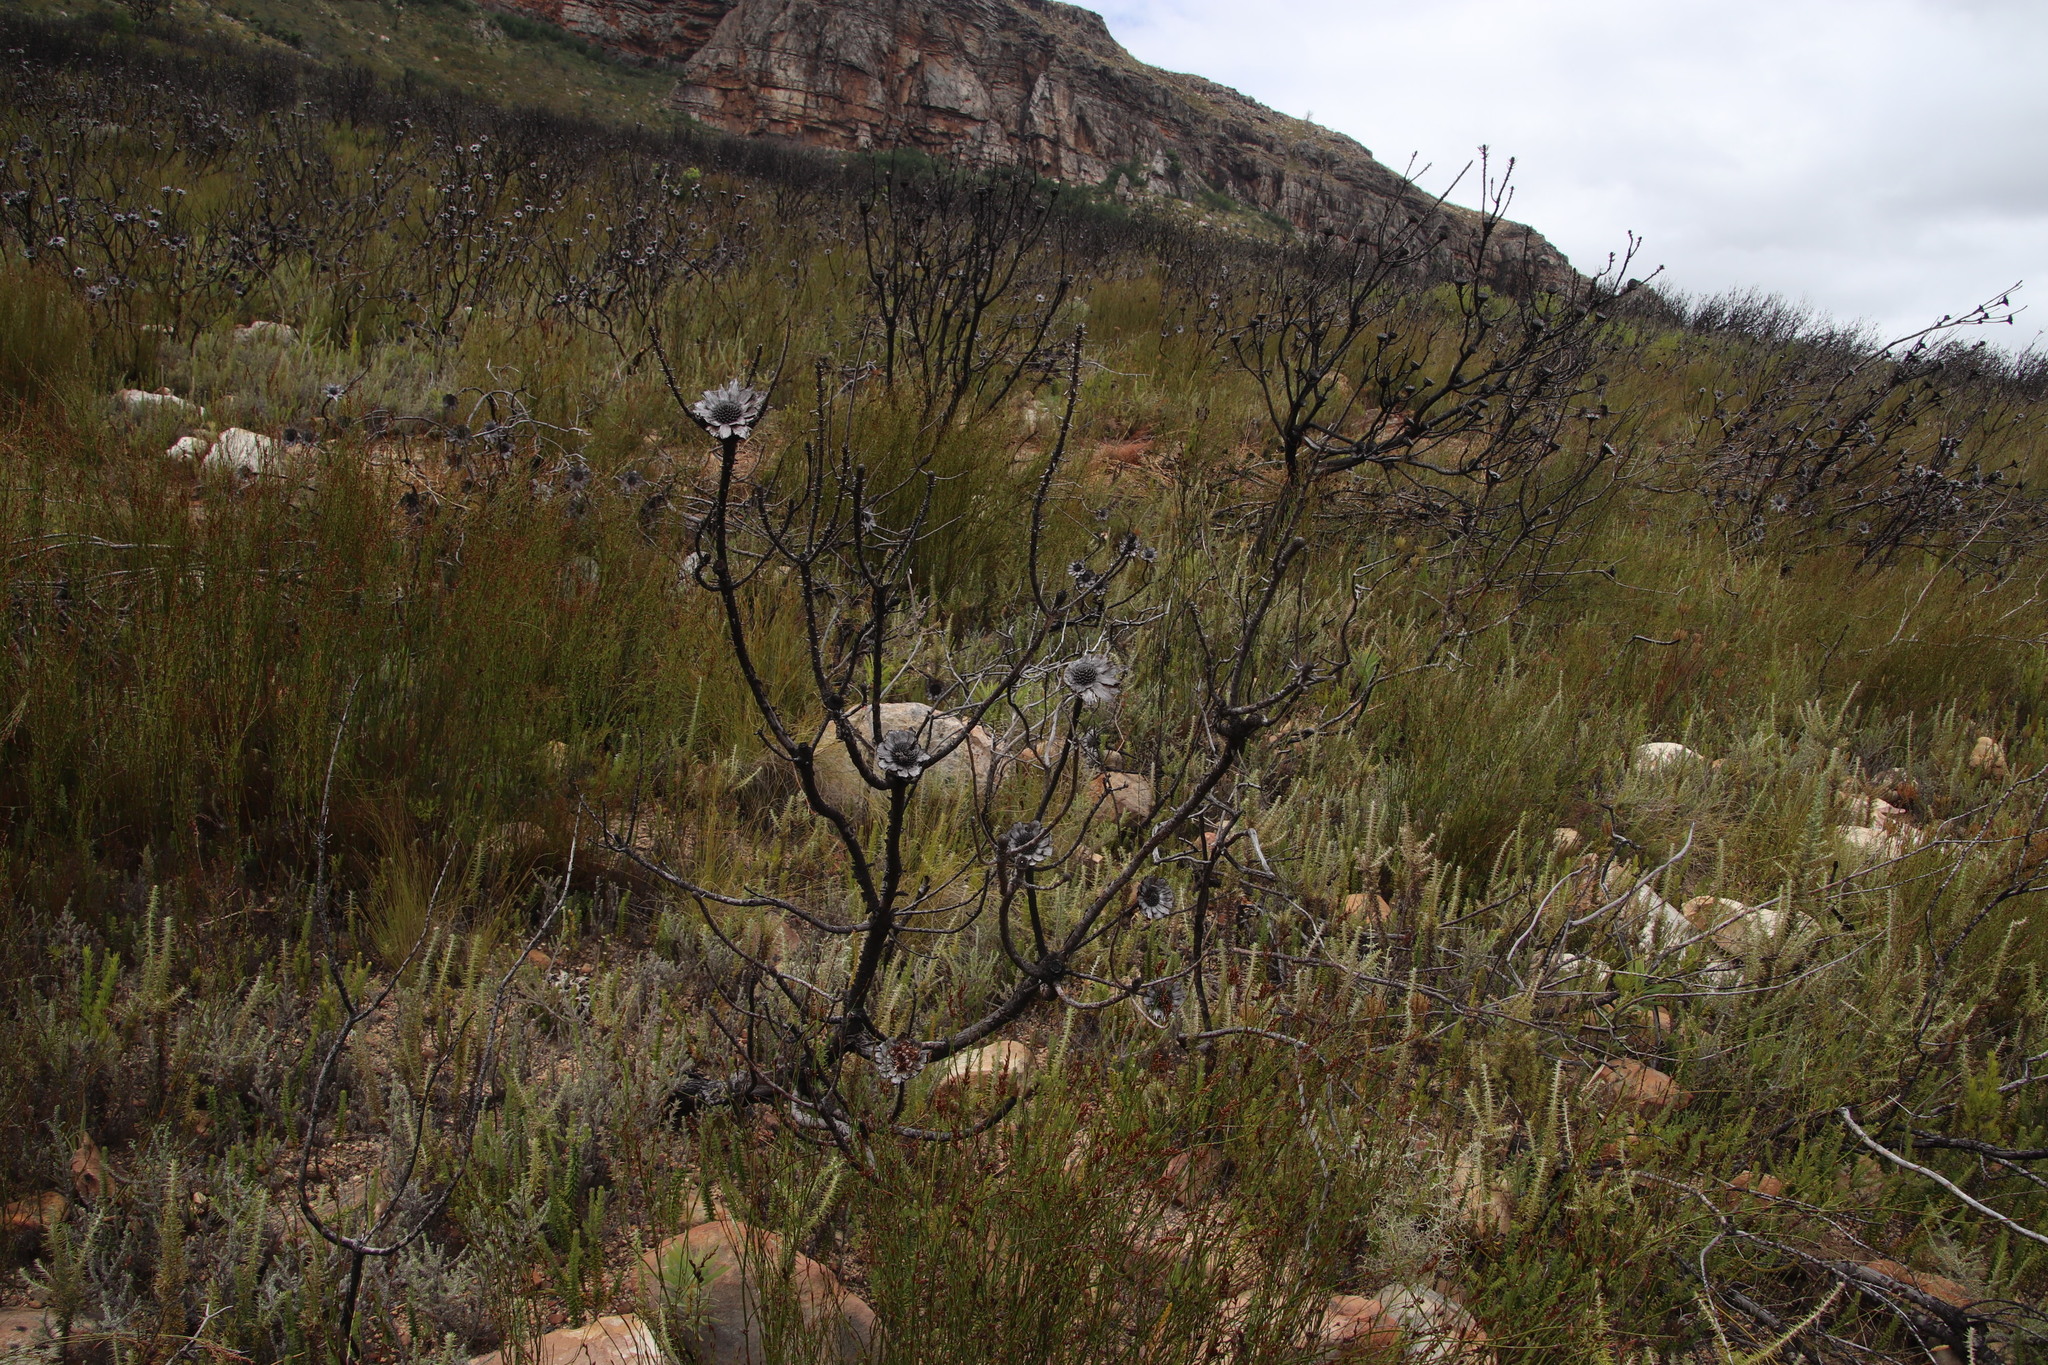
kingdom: Plantae
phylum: Tracheophyta
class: Magnoliopsida
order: Proteales
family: Proteaceae
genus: Protea
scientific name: Protea repens
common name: Sugarbush
